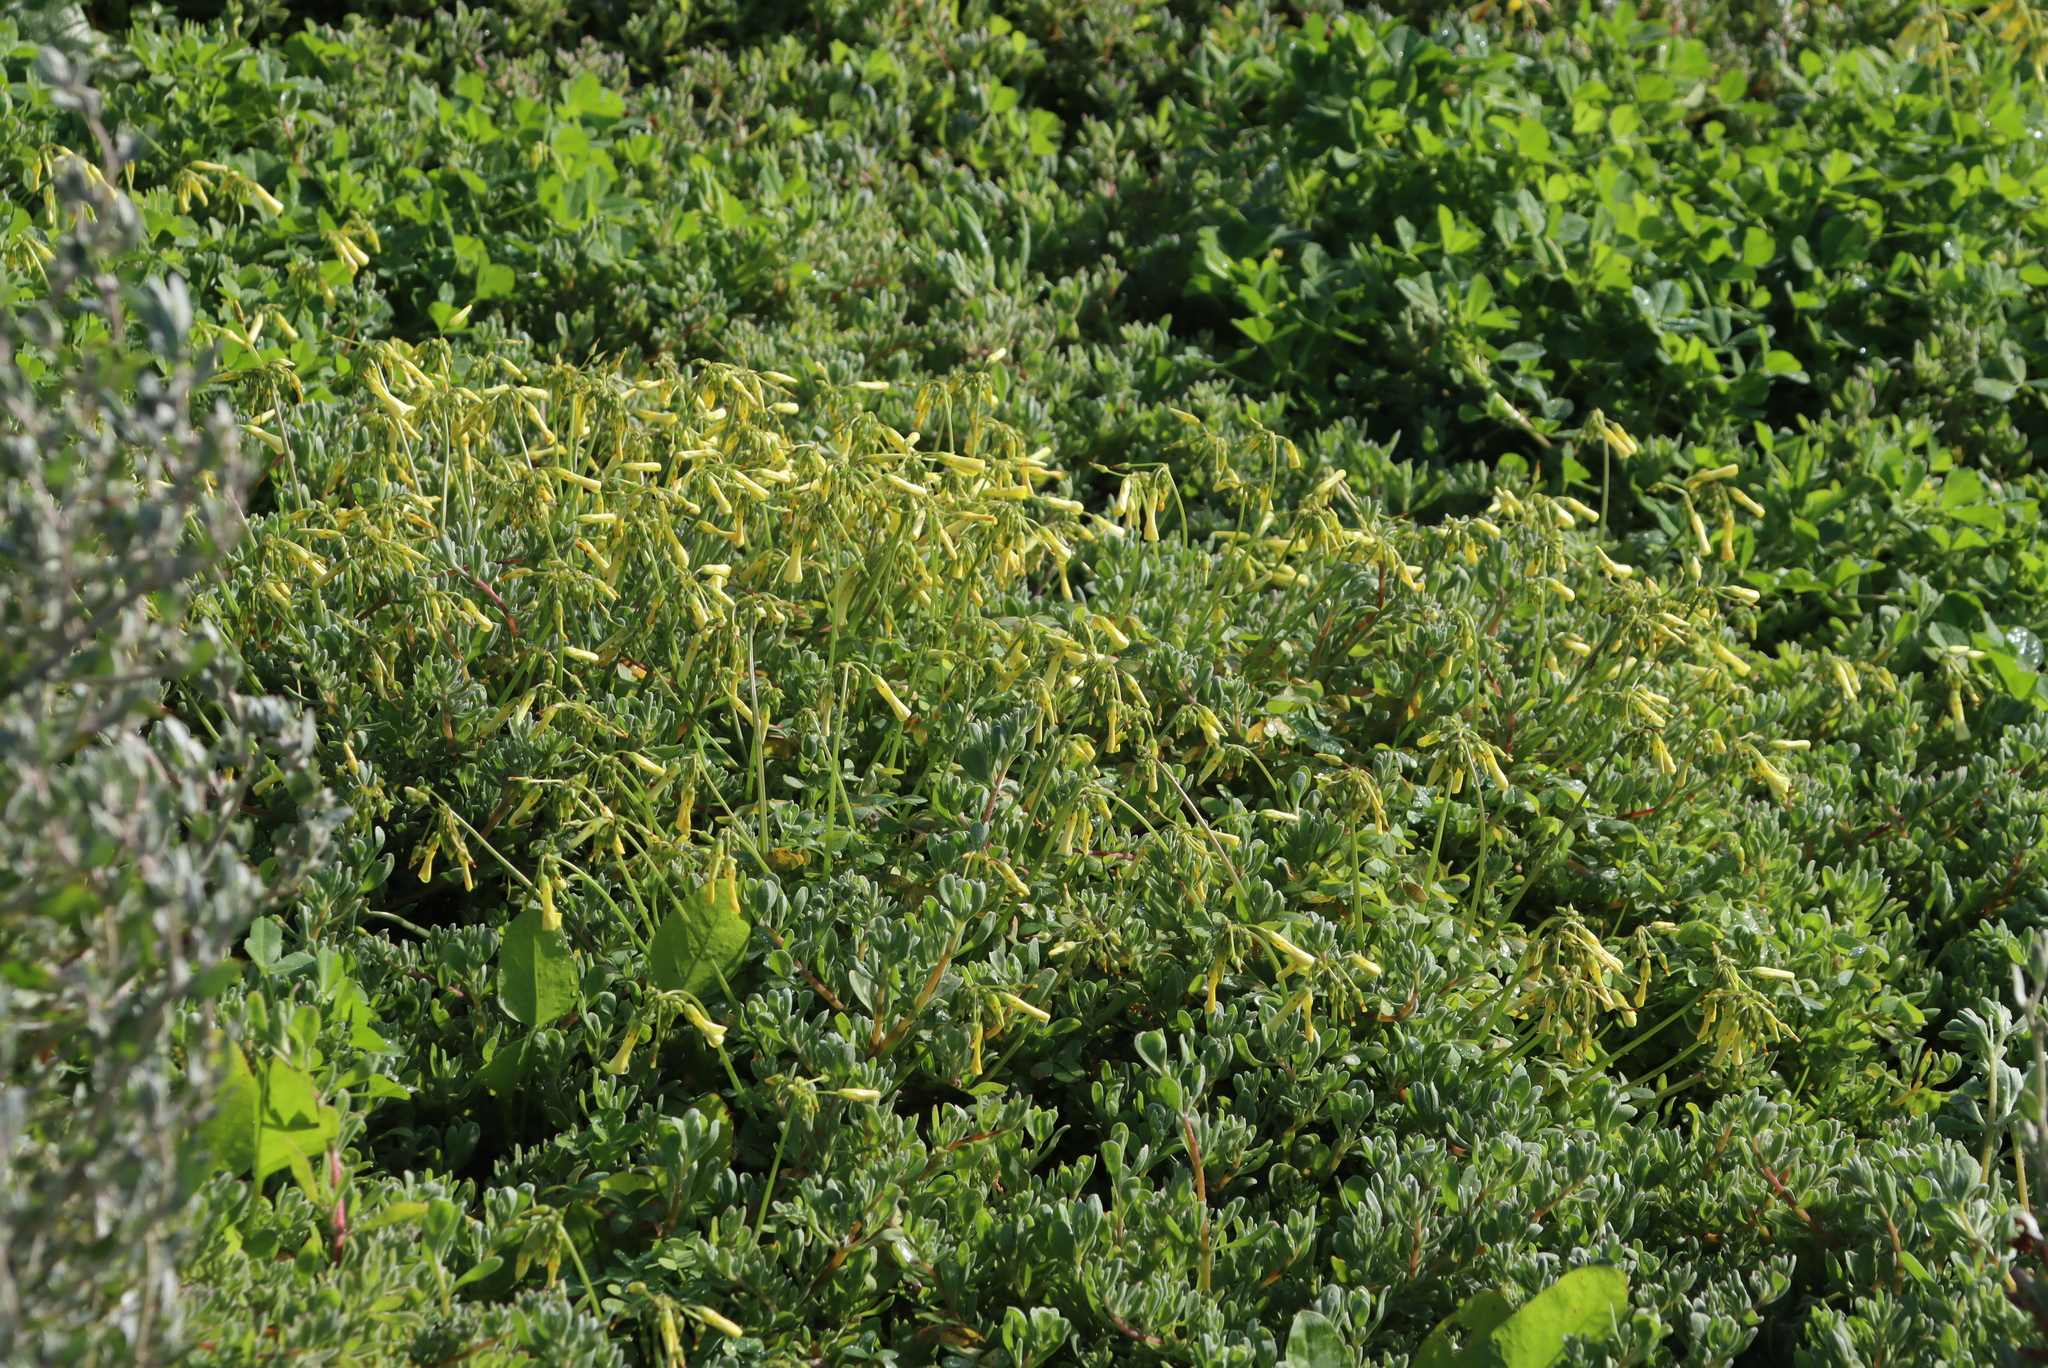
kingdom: Plantae
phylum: Tracheophyta
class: Magnoliopsida
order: Oxalidales
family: Oxalidaceae
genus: Oxalis
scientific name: Oxalis pes-caprae
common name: Bermuda-buttercup
